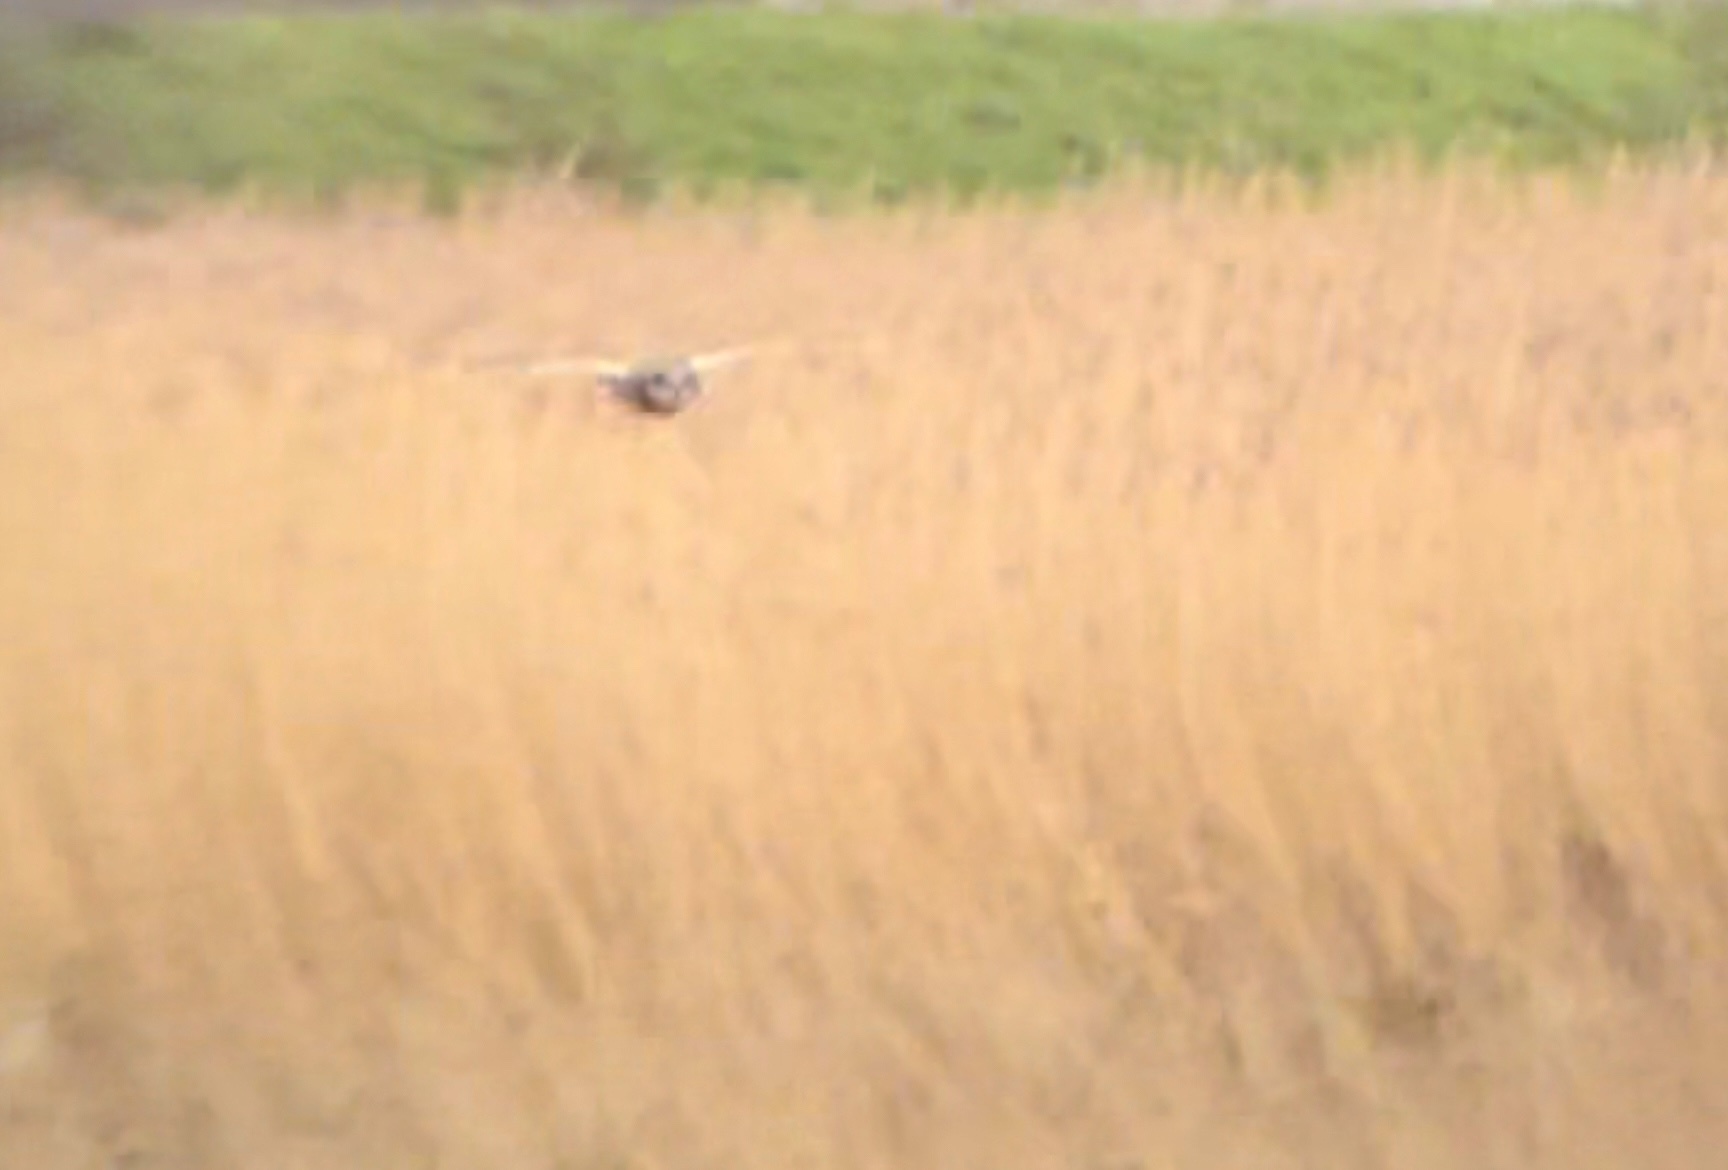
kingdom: Animalia
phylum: Chordata
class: Aves
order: Strigiformes
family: Strigidae
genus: Asio
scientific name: Asio flammeus
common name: Short-eared owl
